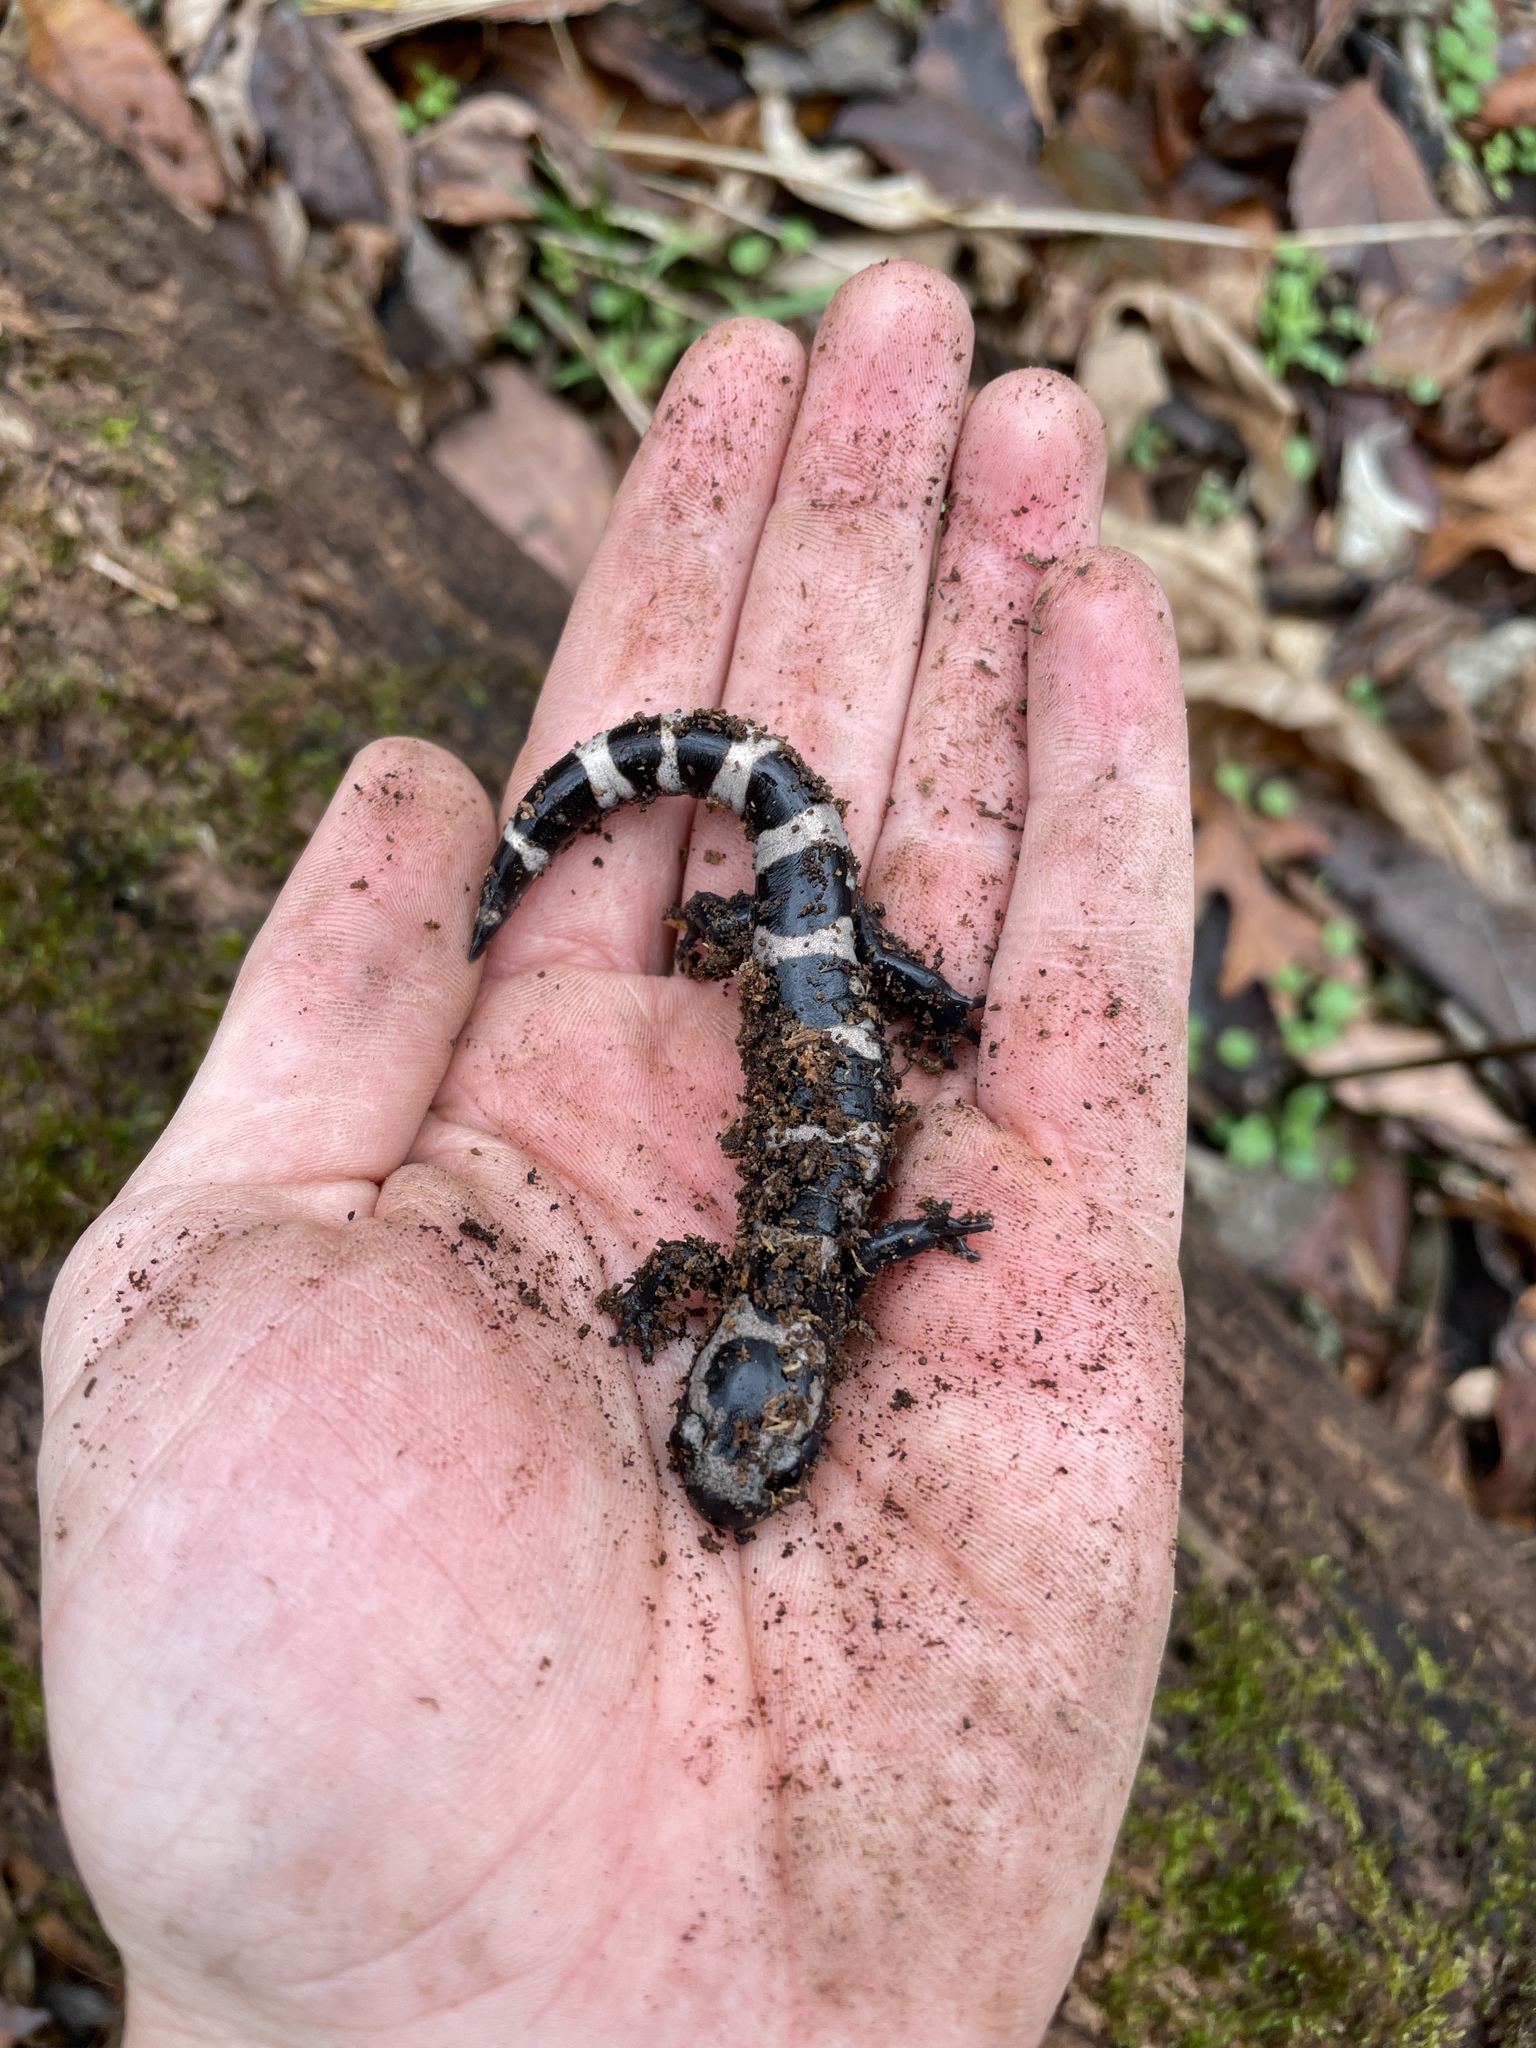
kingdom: Animalia
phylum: Chordata
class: Amphibia
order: Caudata
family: Ambystomatidae
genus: Ambystoma
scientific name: Ambystoma opacum
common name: Marbled salamander
